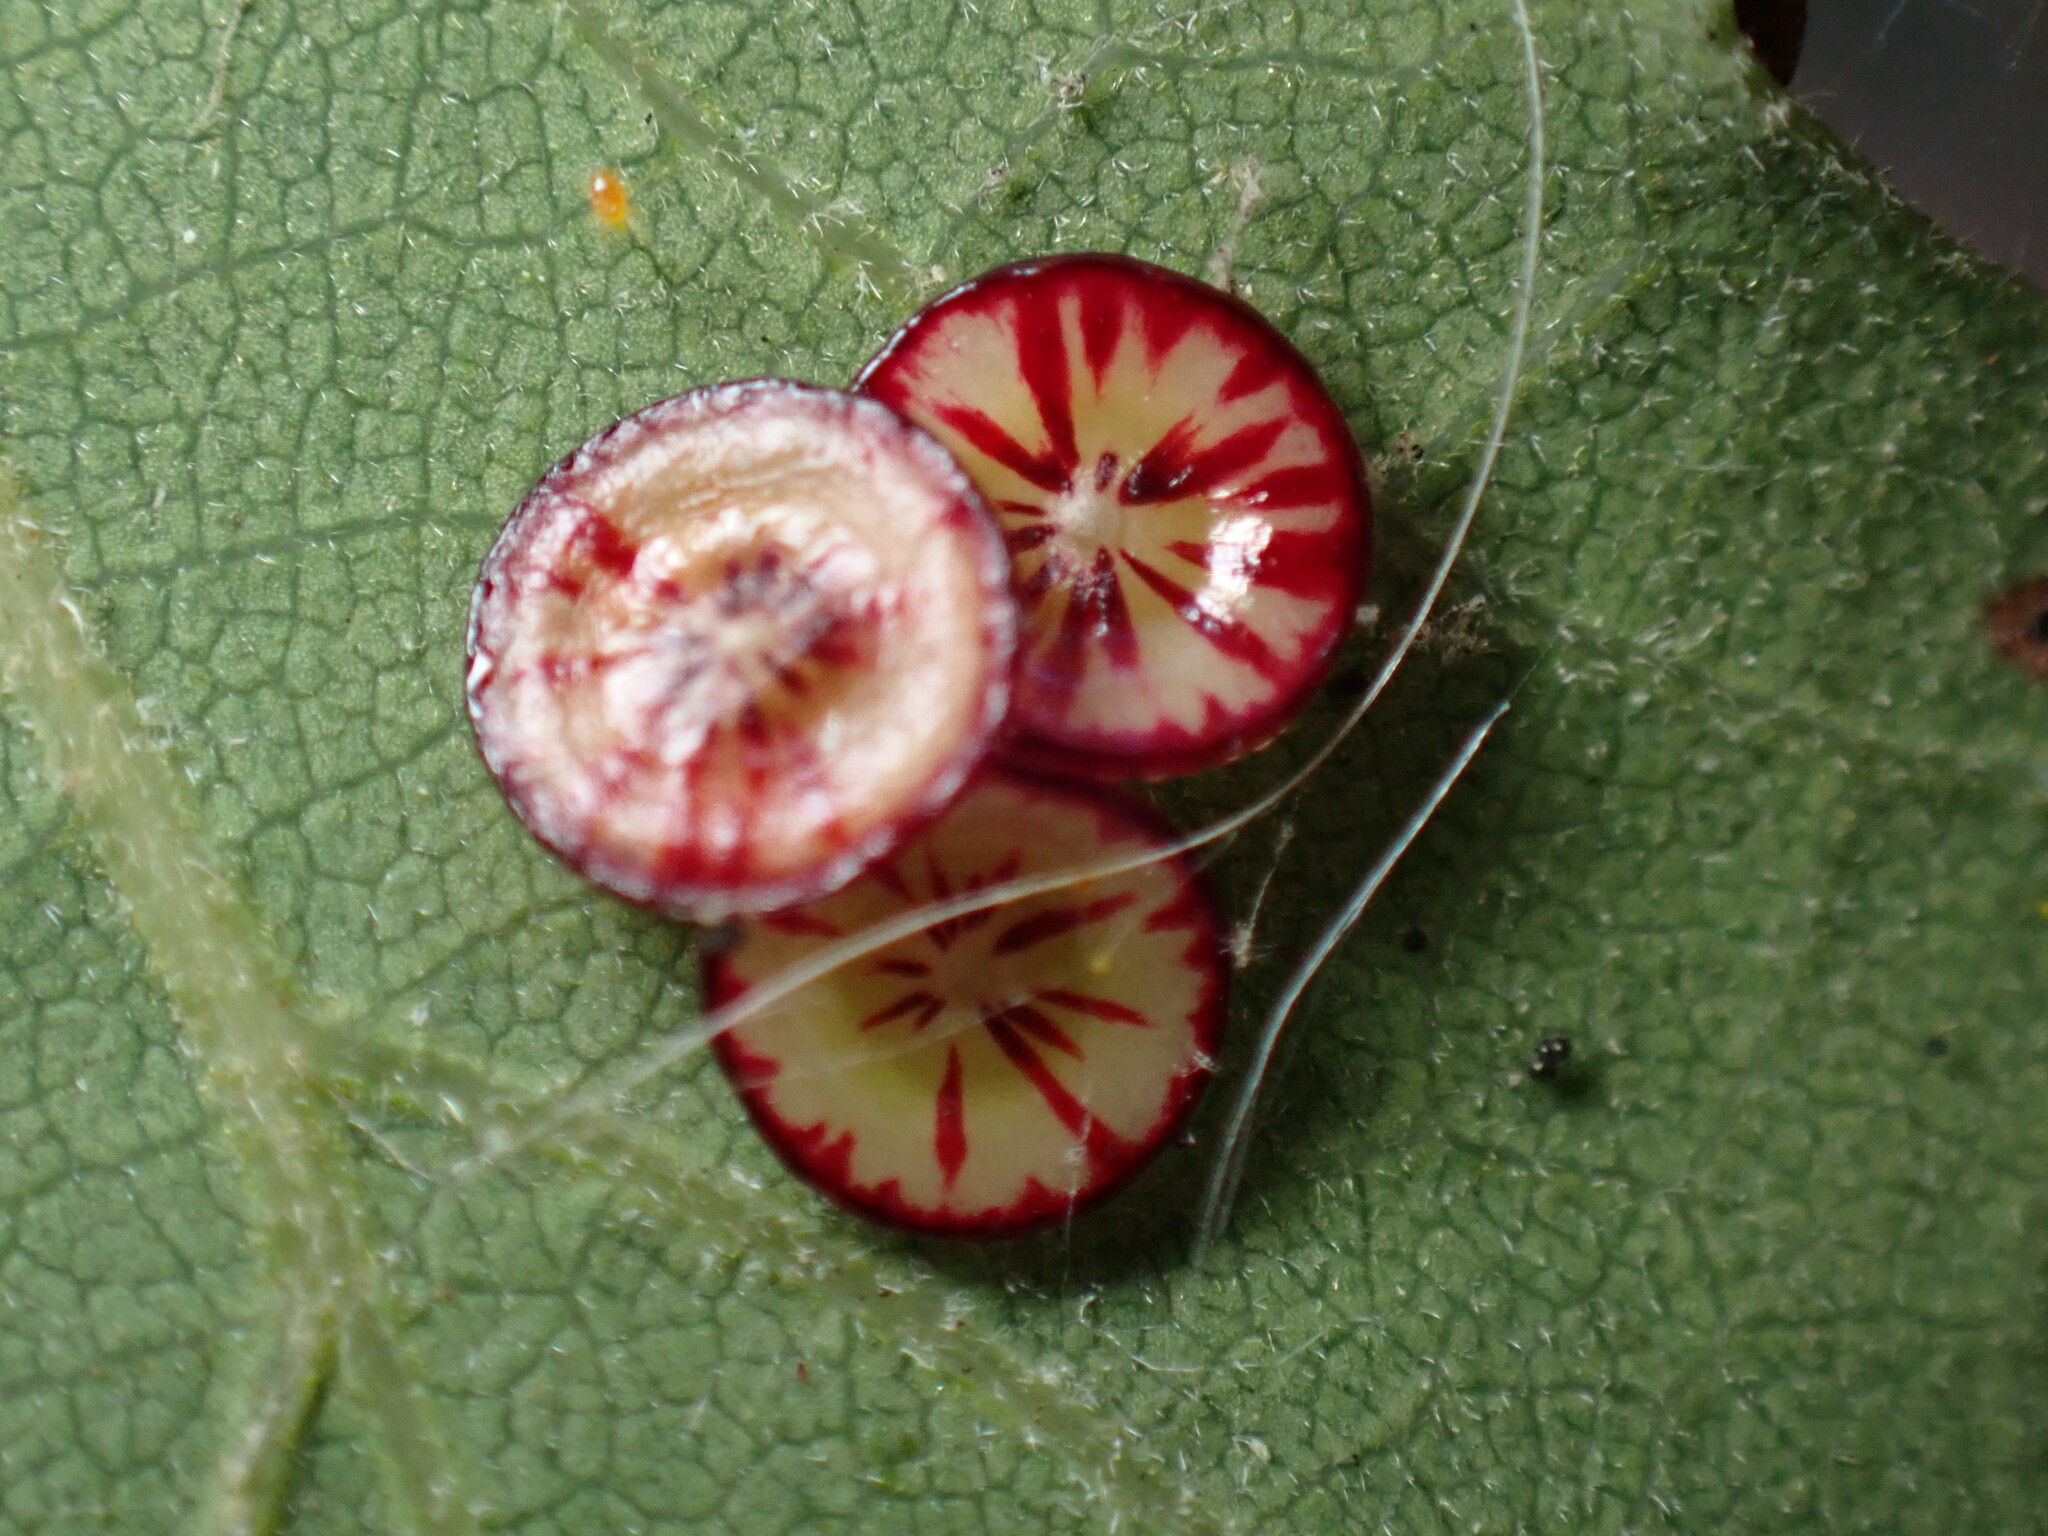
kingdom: Animalia
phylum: Arthropoda
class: Insecta
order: Hymenoptera
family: Cynipidae
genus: Andricus
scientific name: Andricus
